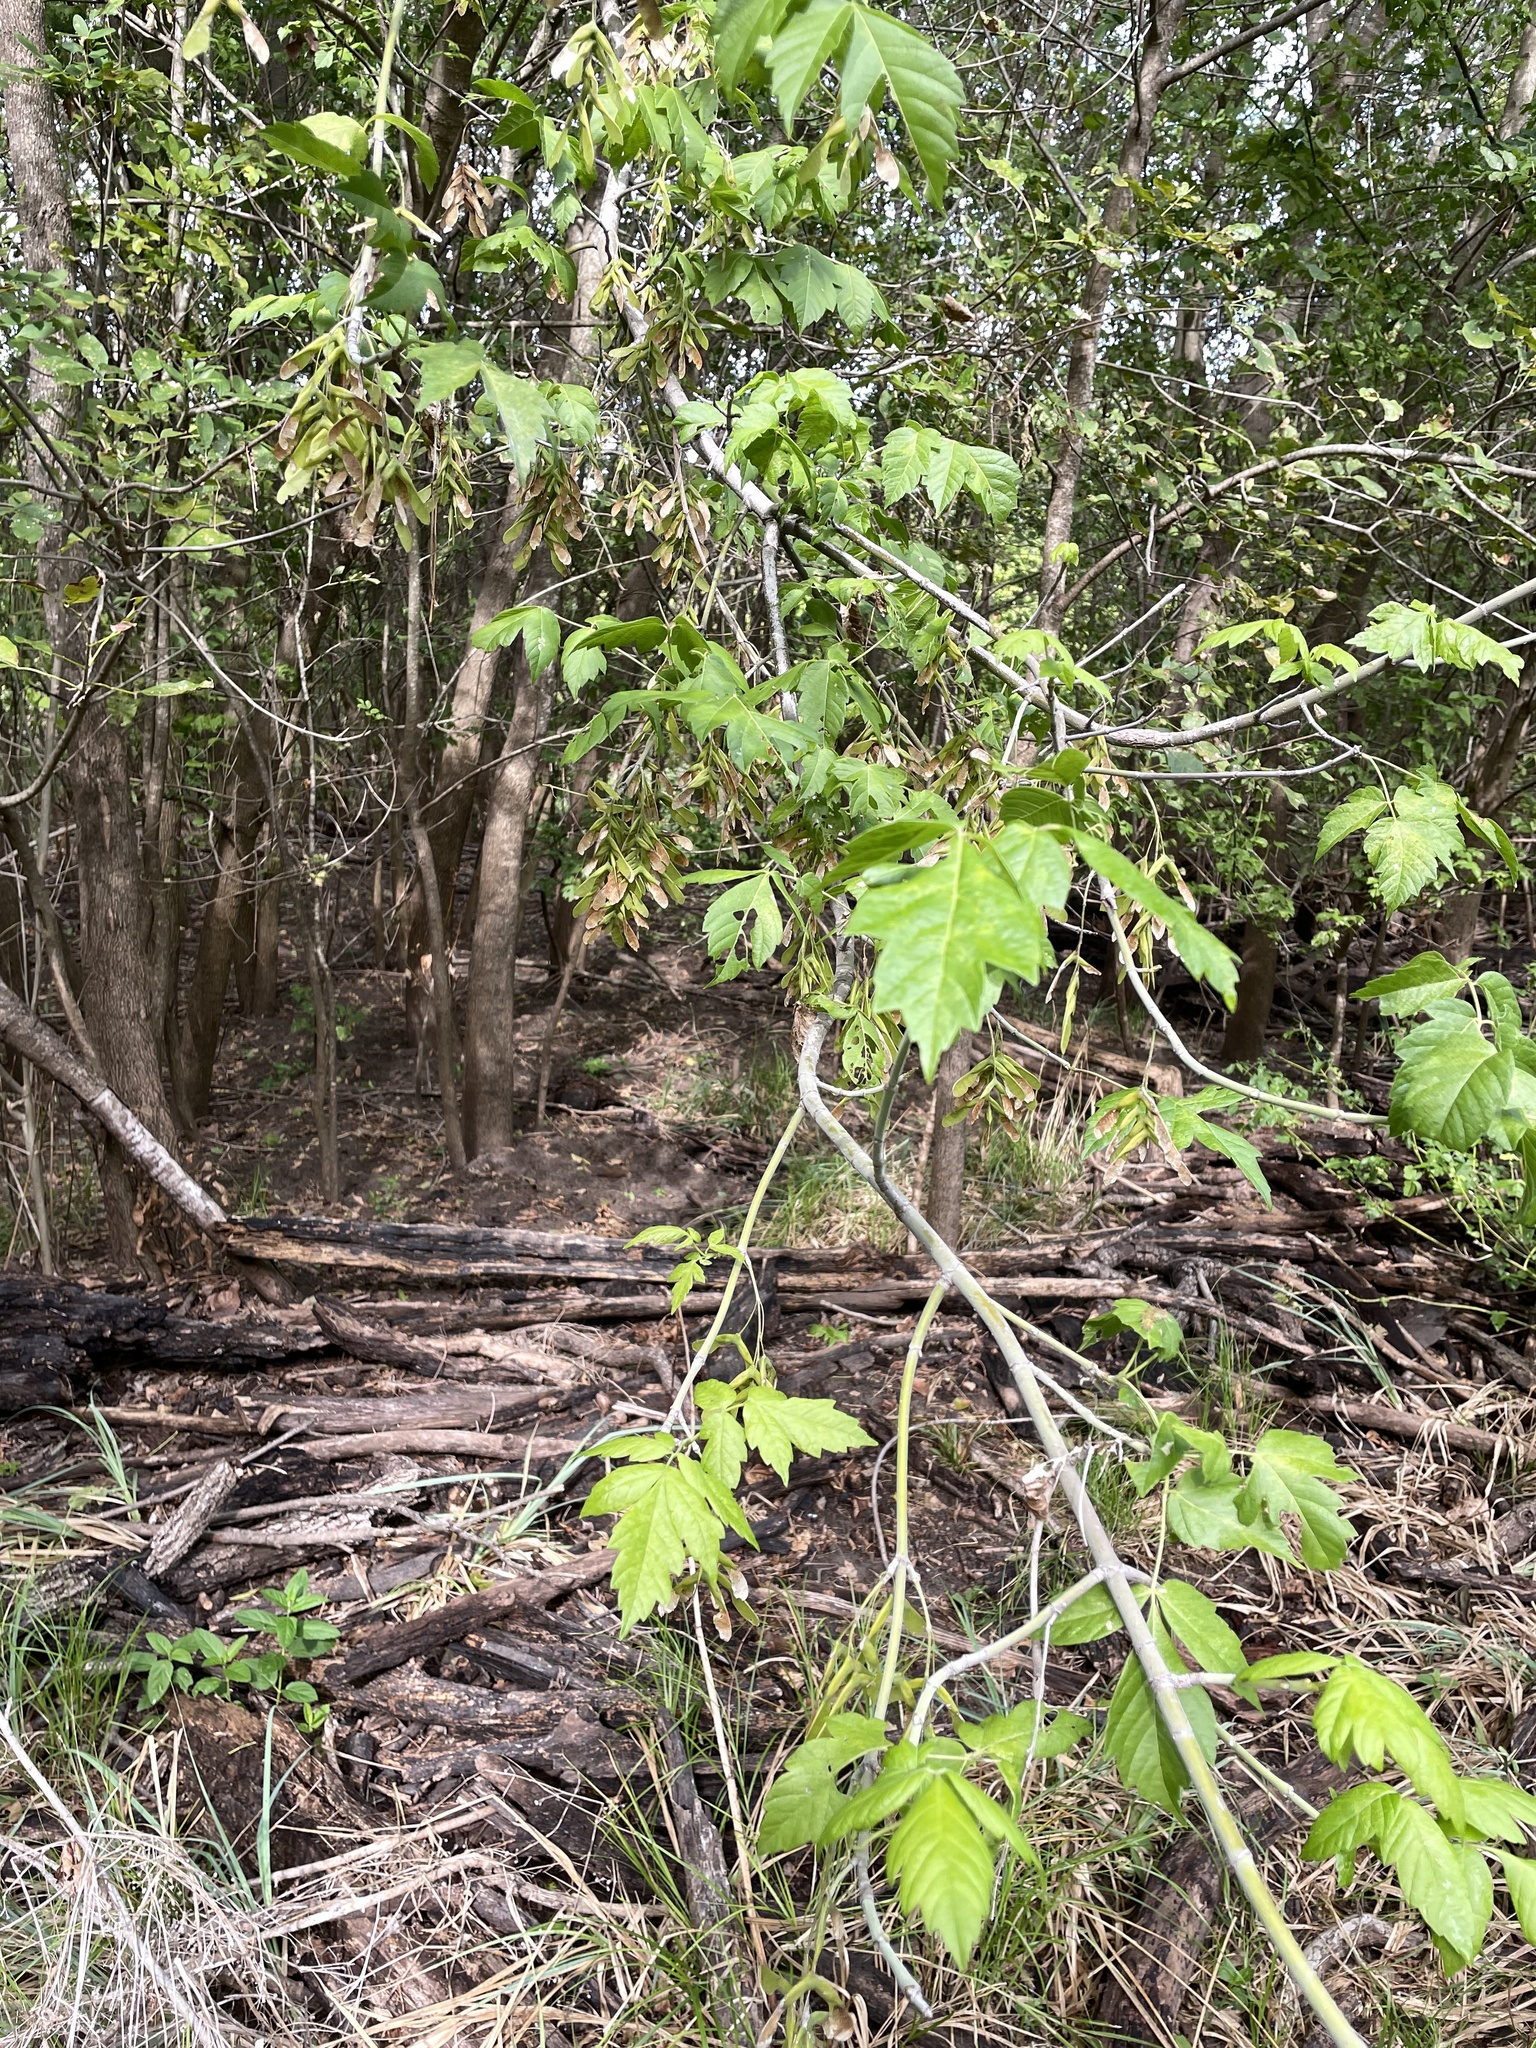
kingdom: Plantae
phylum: Tracheophyta
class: Magnoliopsida
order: Sapindales
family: Sapindaceae
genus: Acer
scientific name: Acer negundo
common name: Ashleaf maple
